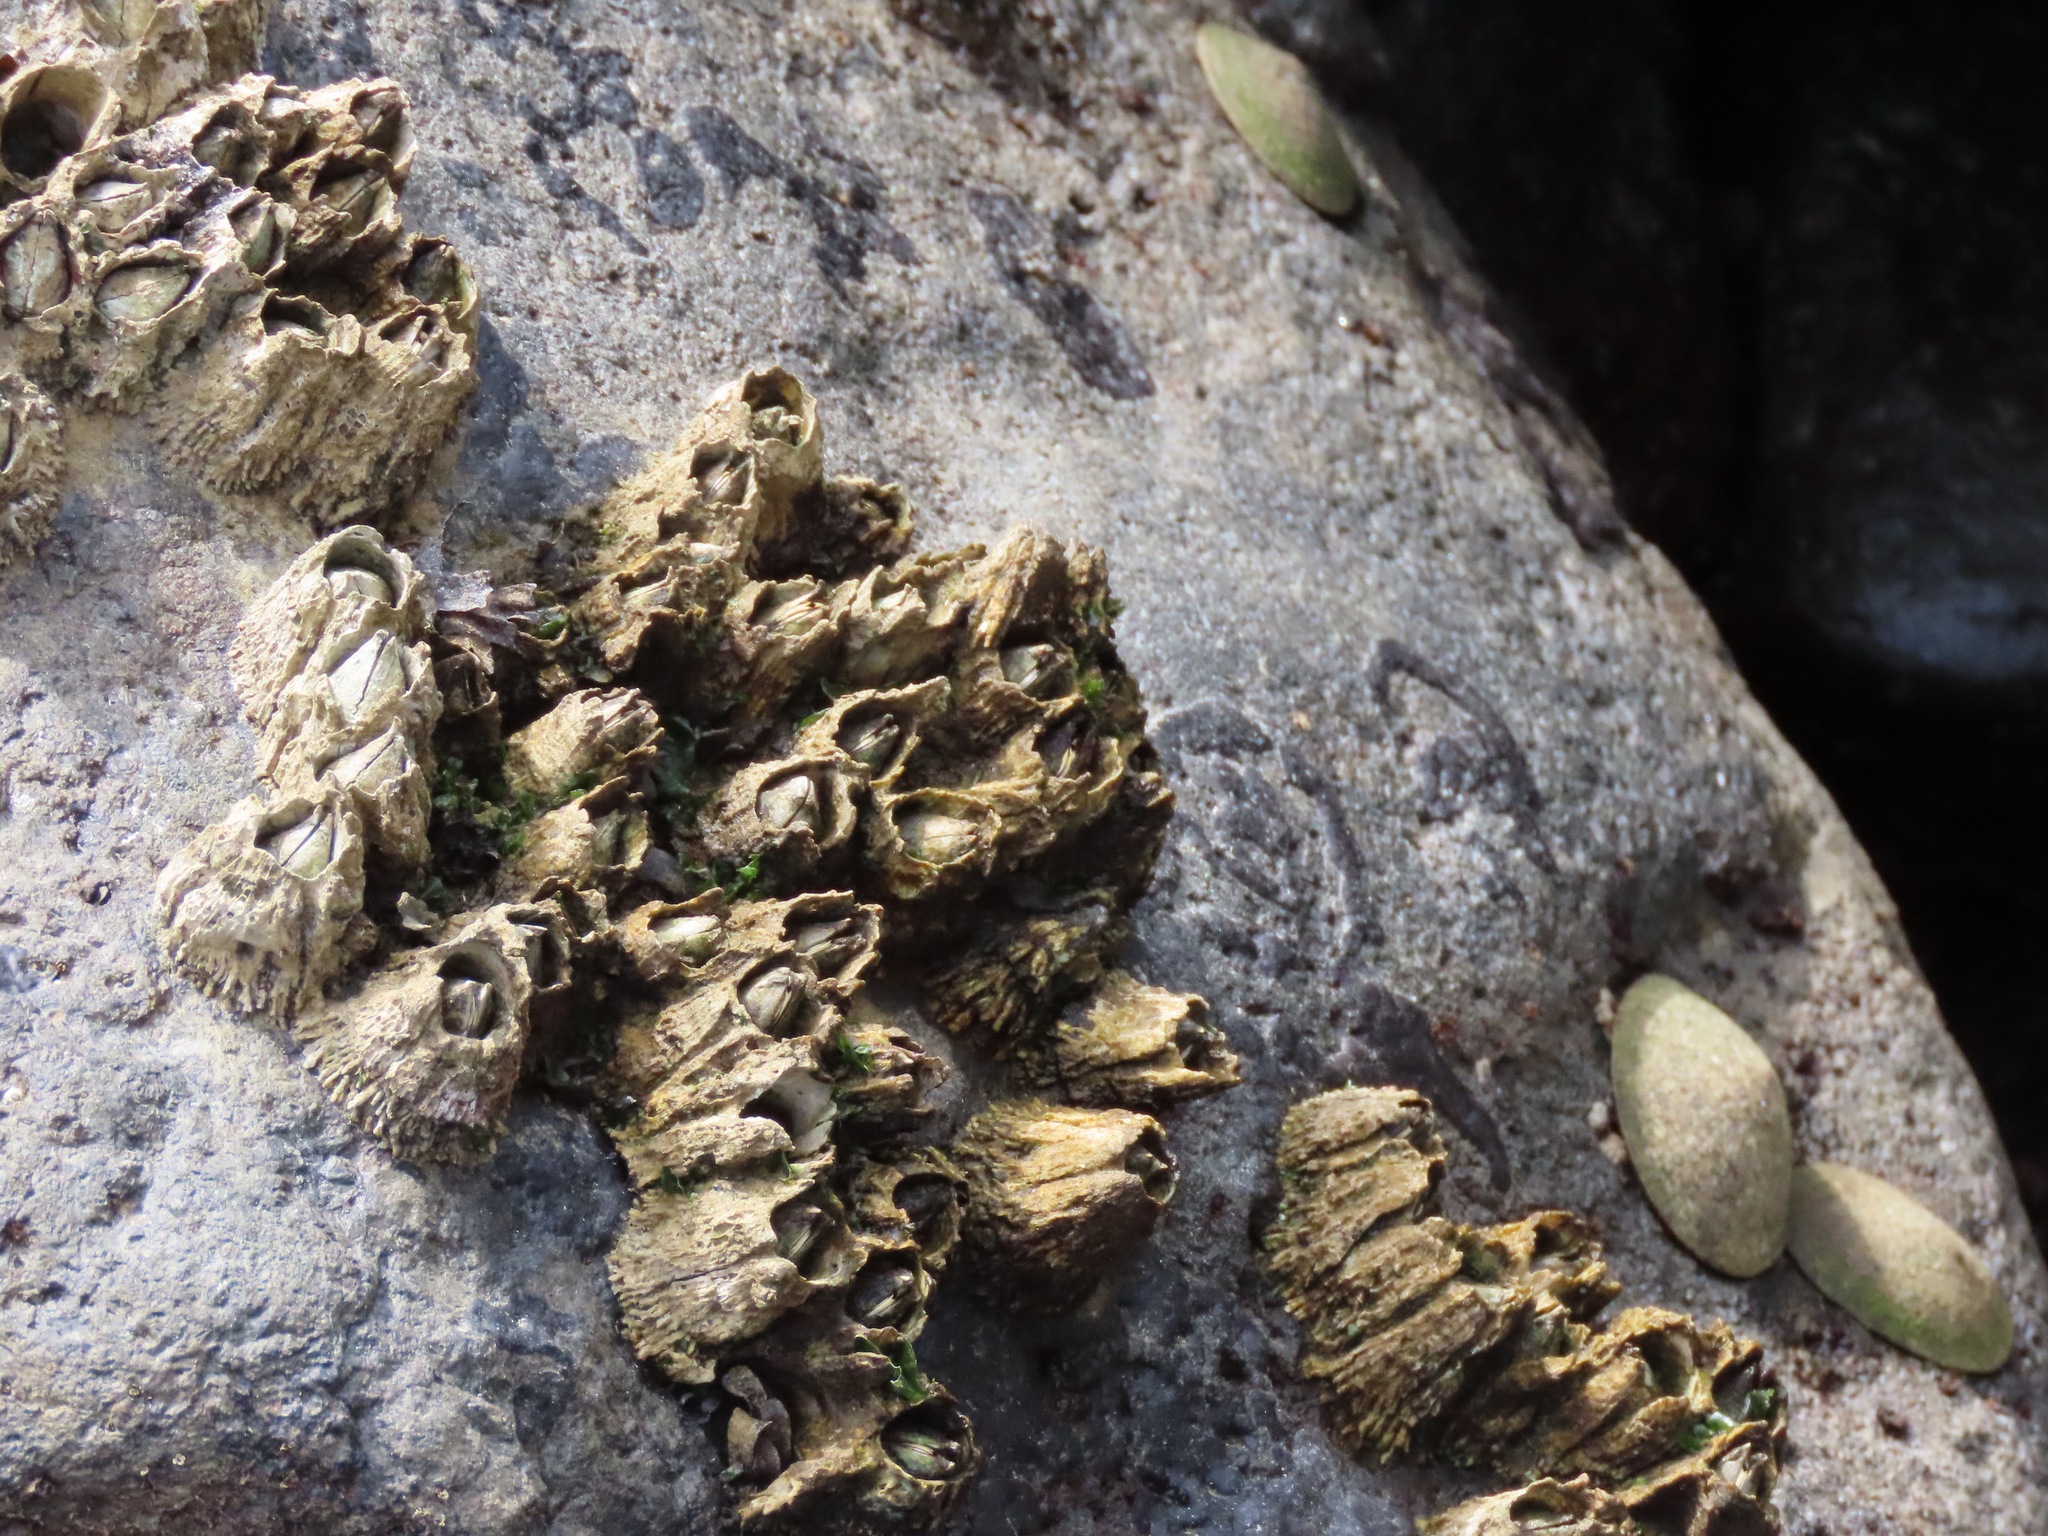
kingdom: Animalia
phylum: Arthropoda
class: Maxillopoda
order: Sessilia
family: Archaeobalanidae
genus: Semibalanus
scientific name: Semibalanus cariosus
